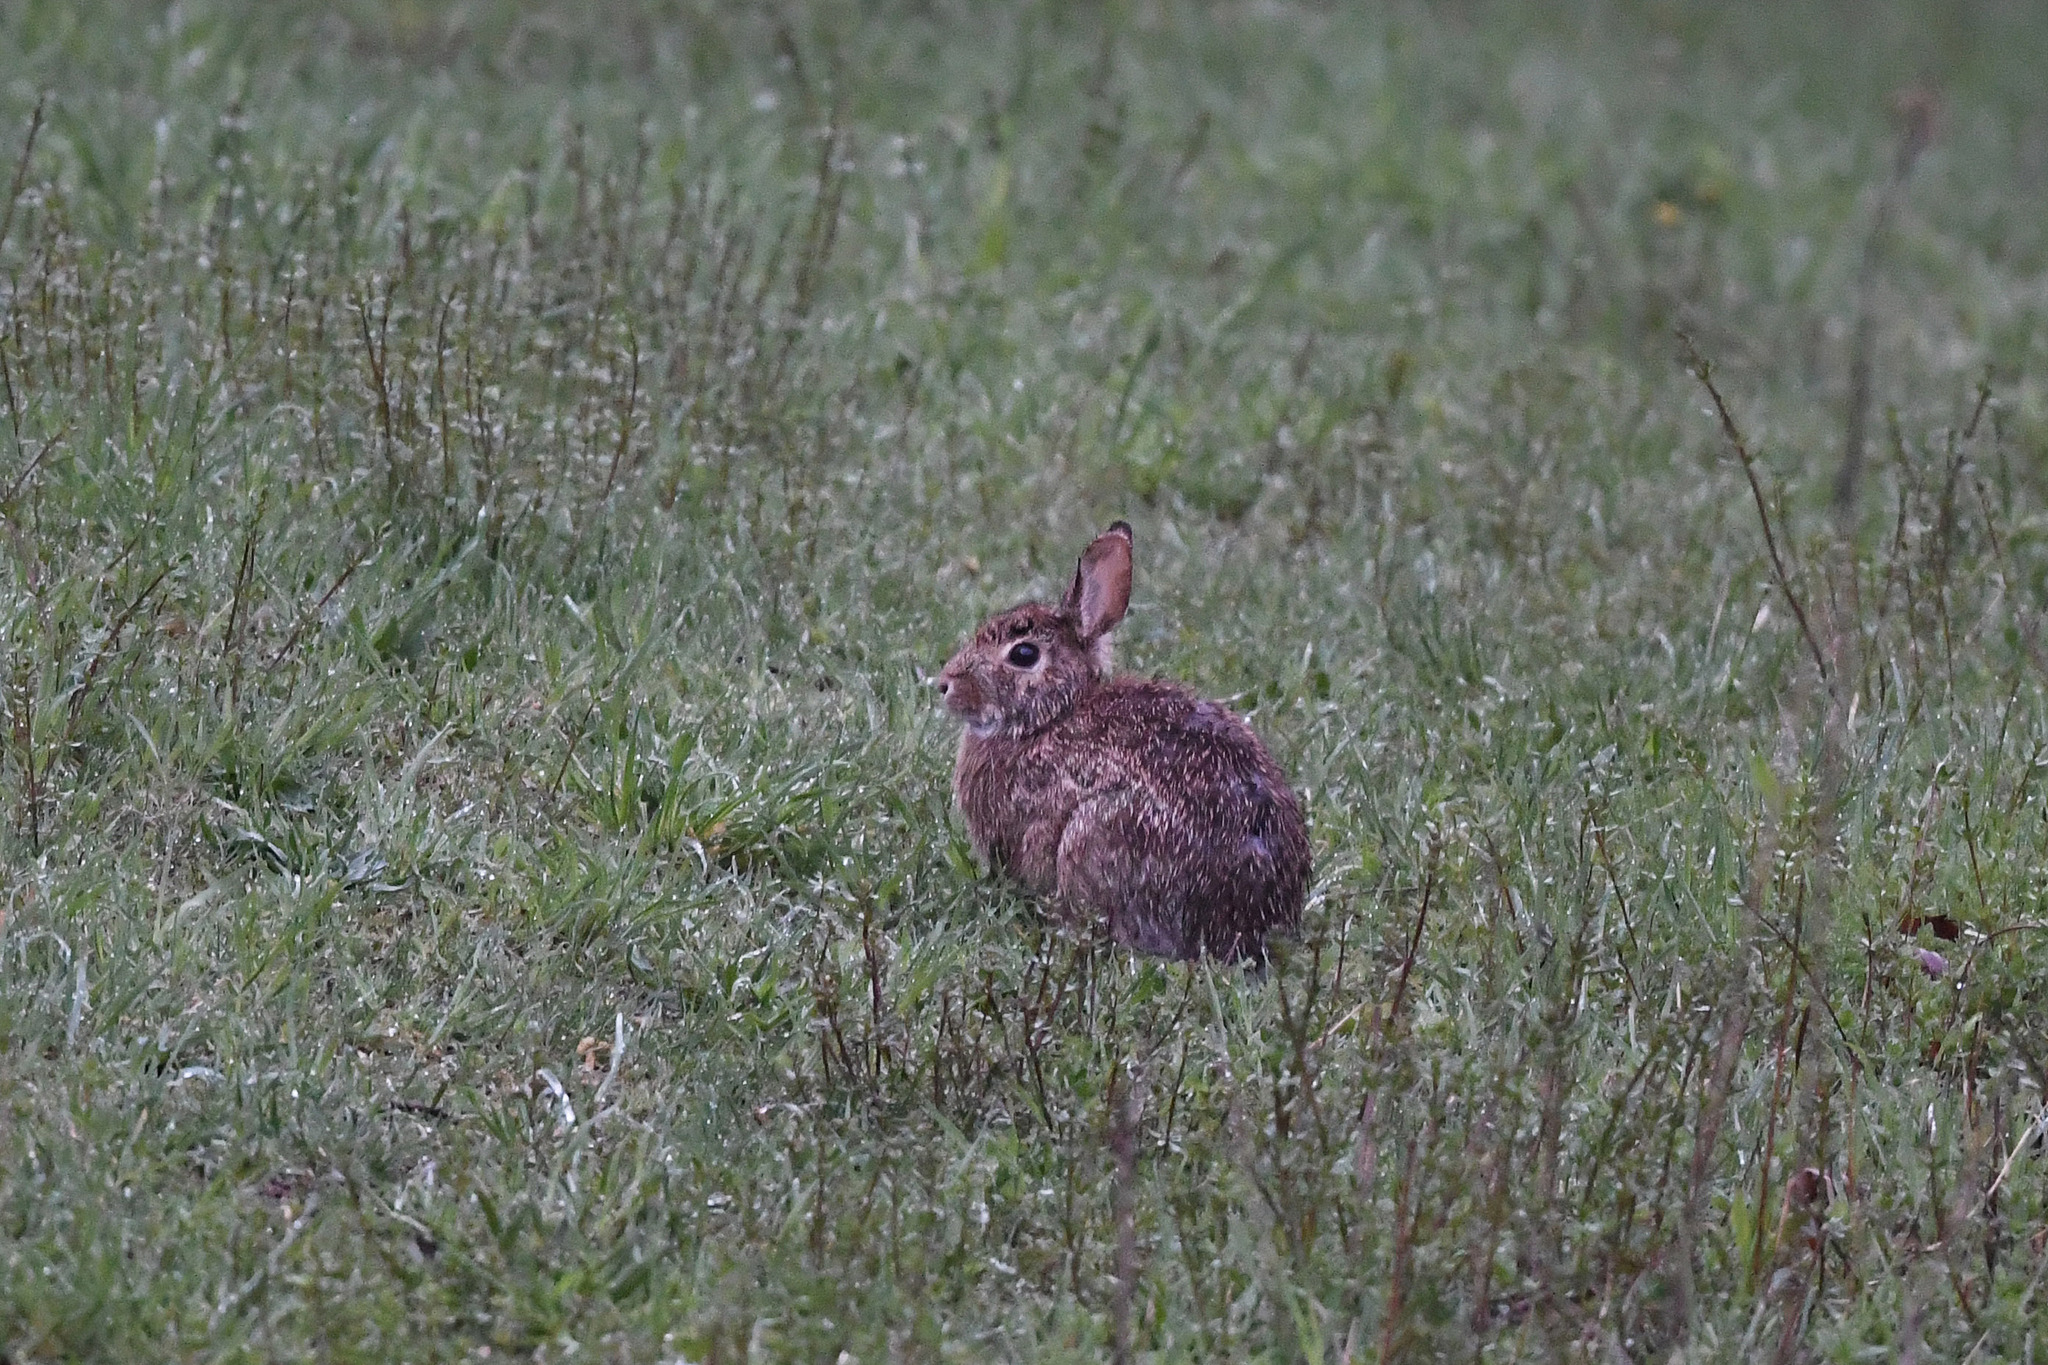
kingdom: Animalia
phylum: Chordata
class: Mammalia
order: Lagomorpha
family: Leporidae
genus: Sylvilagus
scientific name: Sylvilagus floridanus
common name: Eastern cottontail
